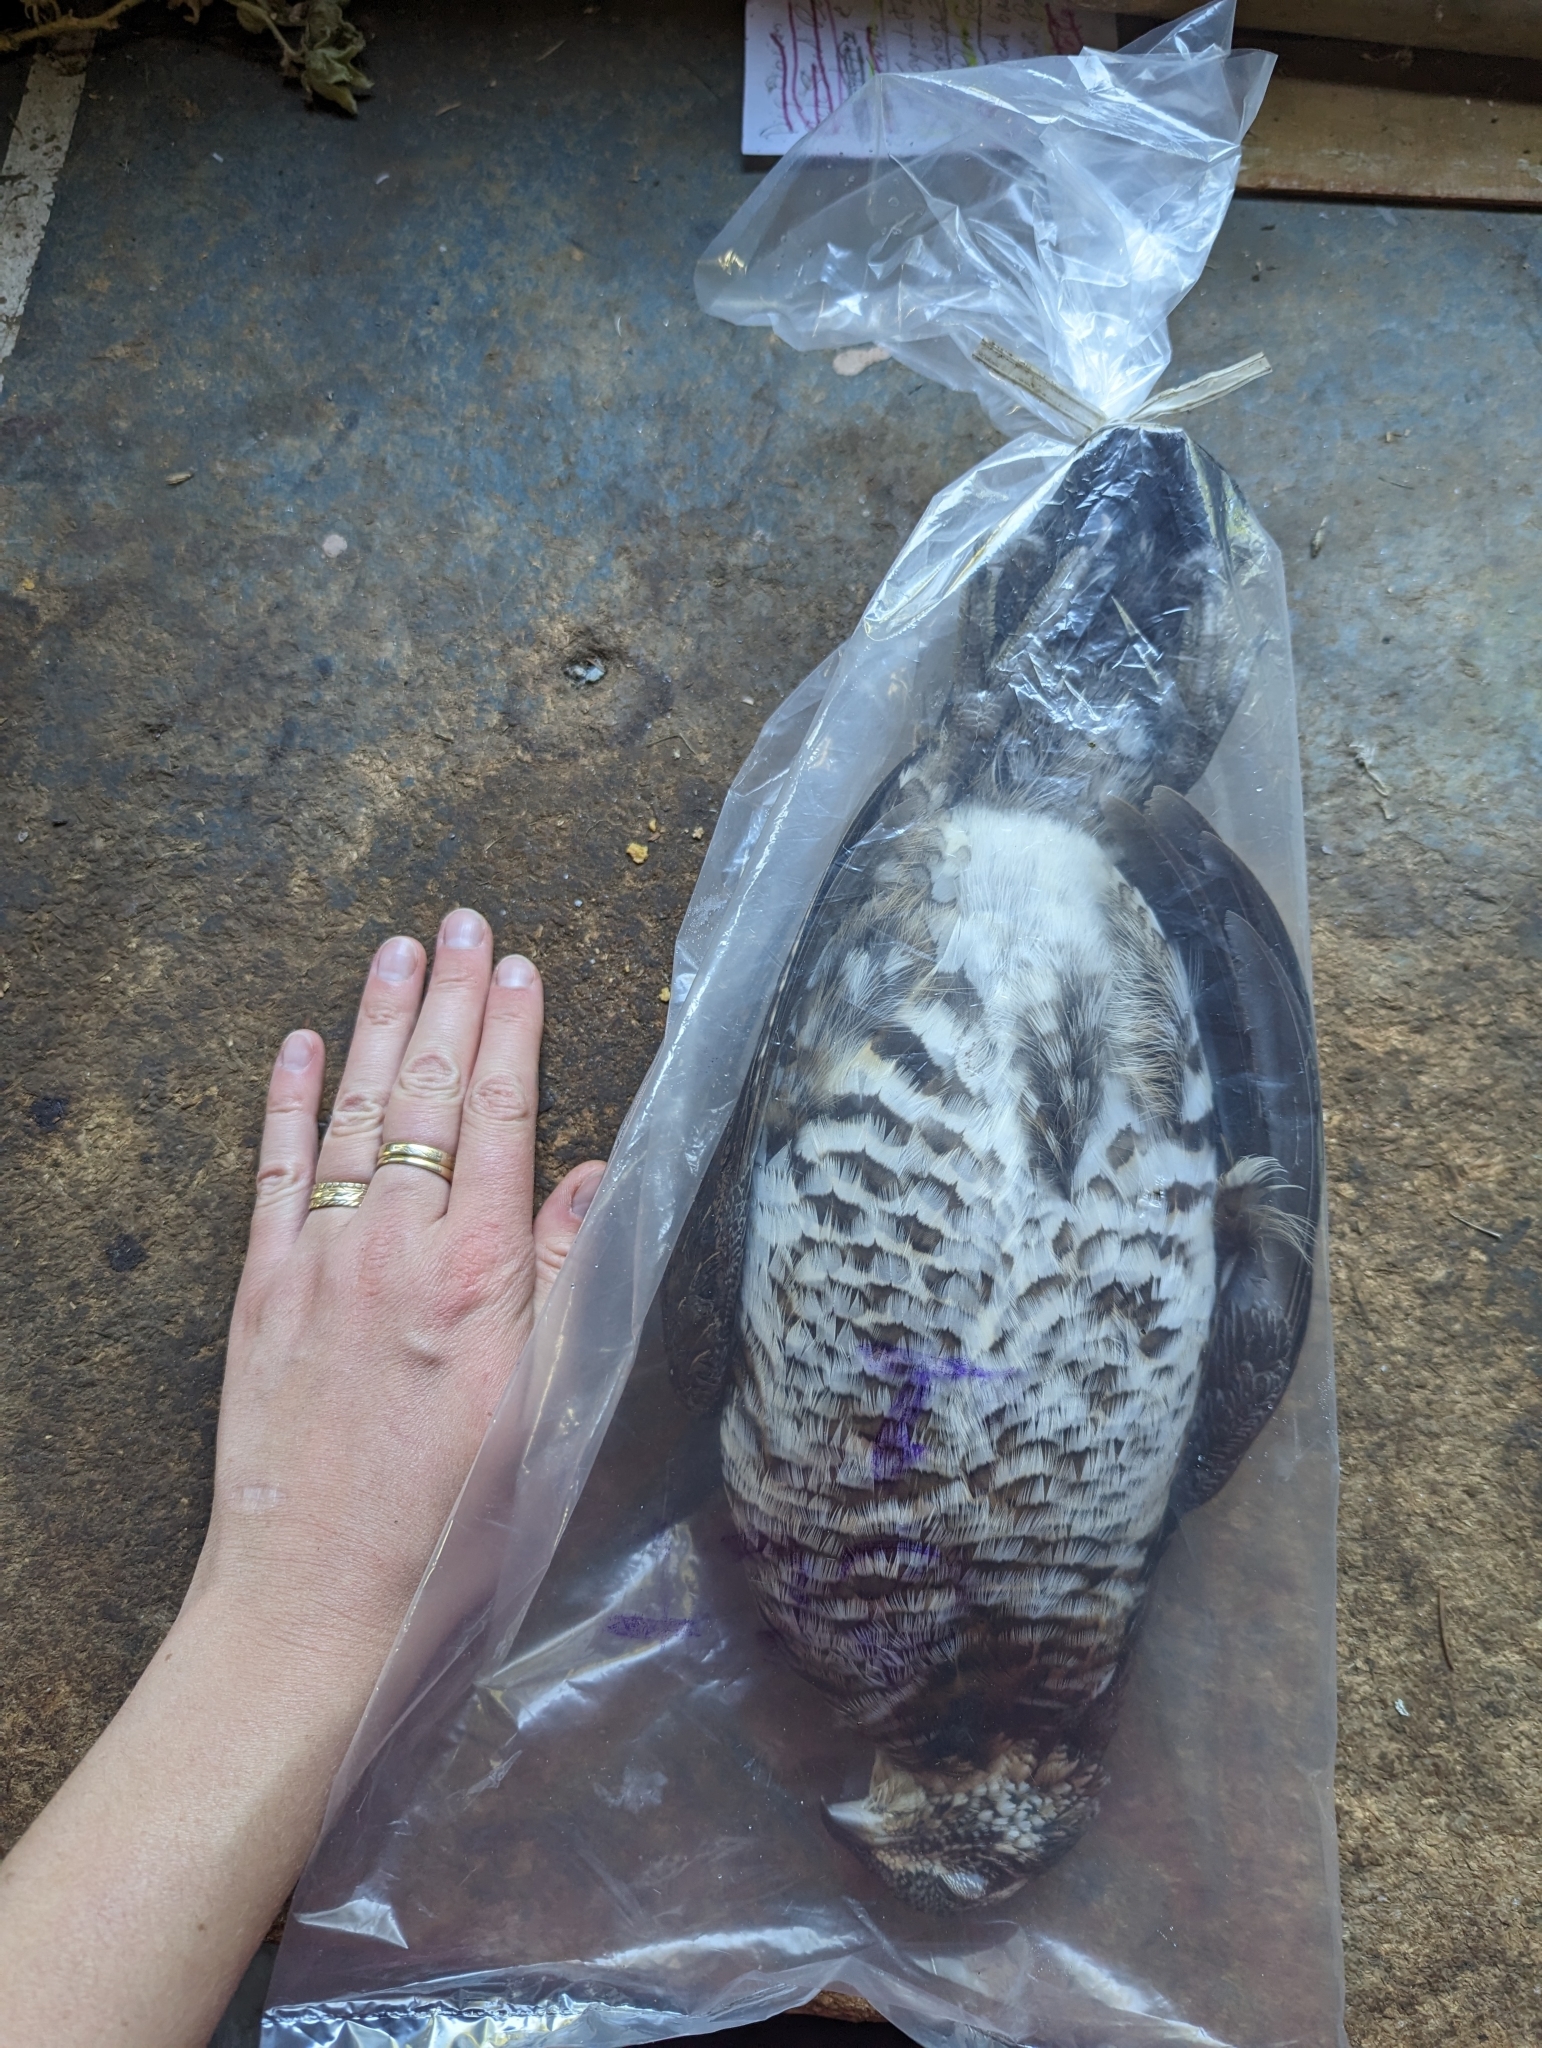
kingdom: Animalia
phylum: Chordata
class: Aves
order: Galliformes
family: Phasianidae
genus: Bonasa
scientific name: Bonasa umbellus
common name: Ruffed grouse
